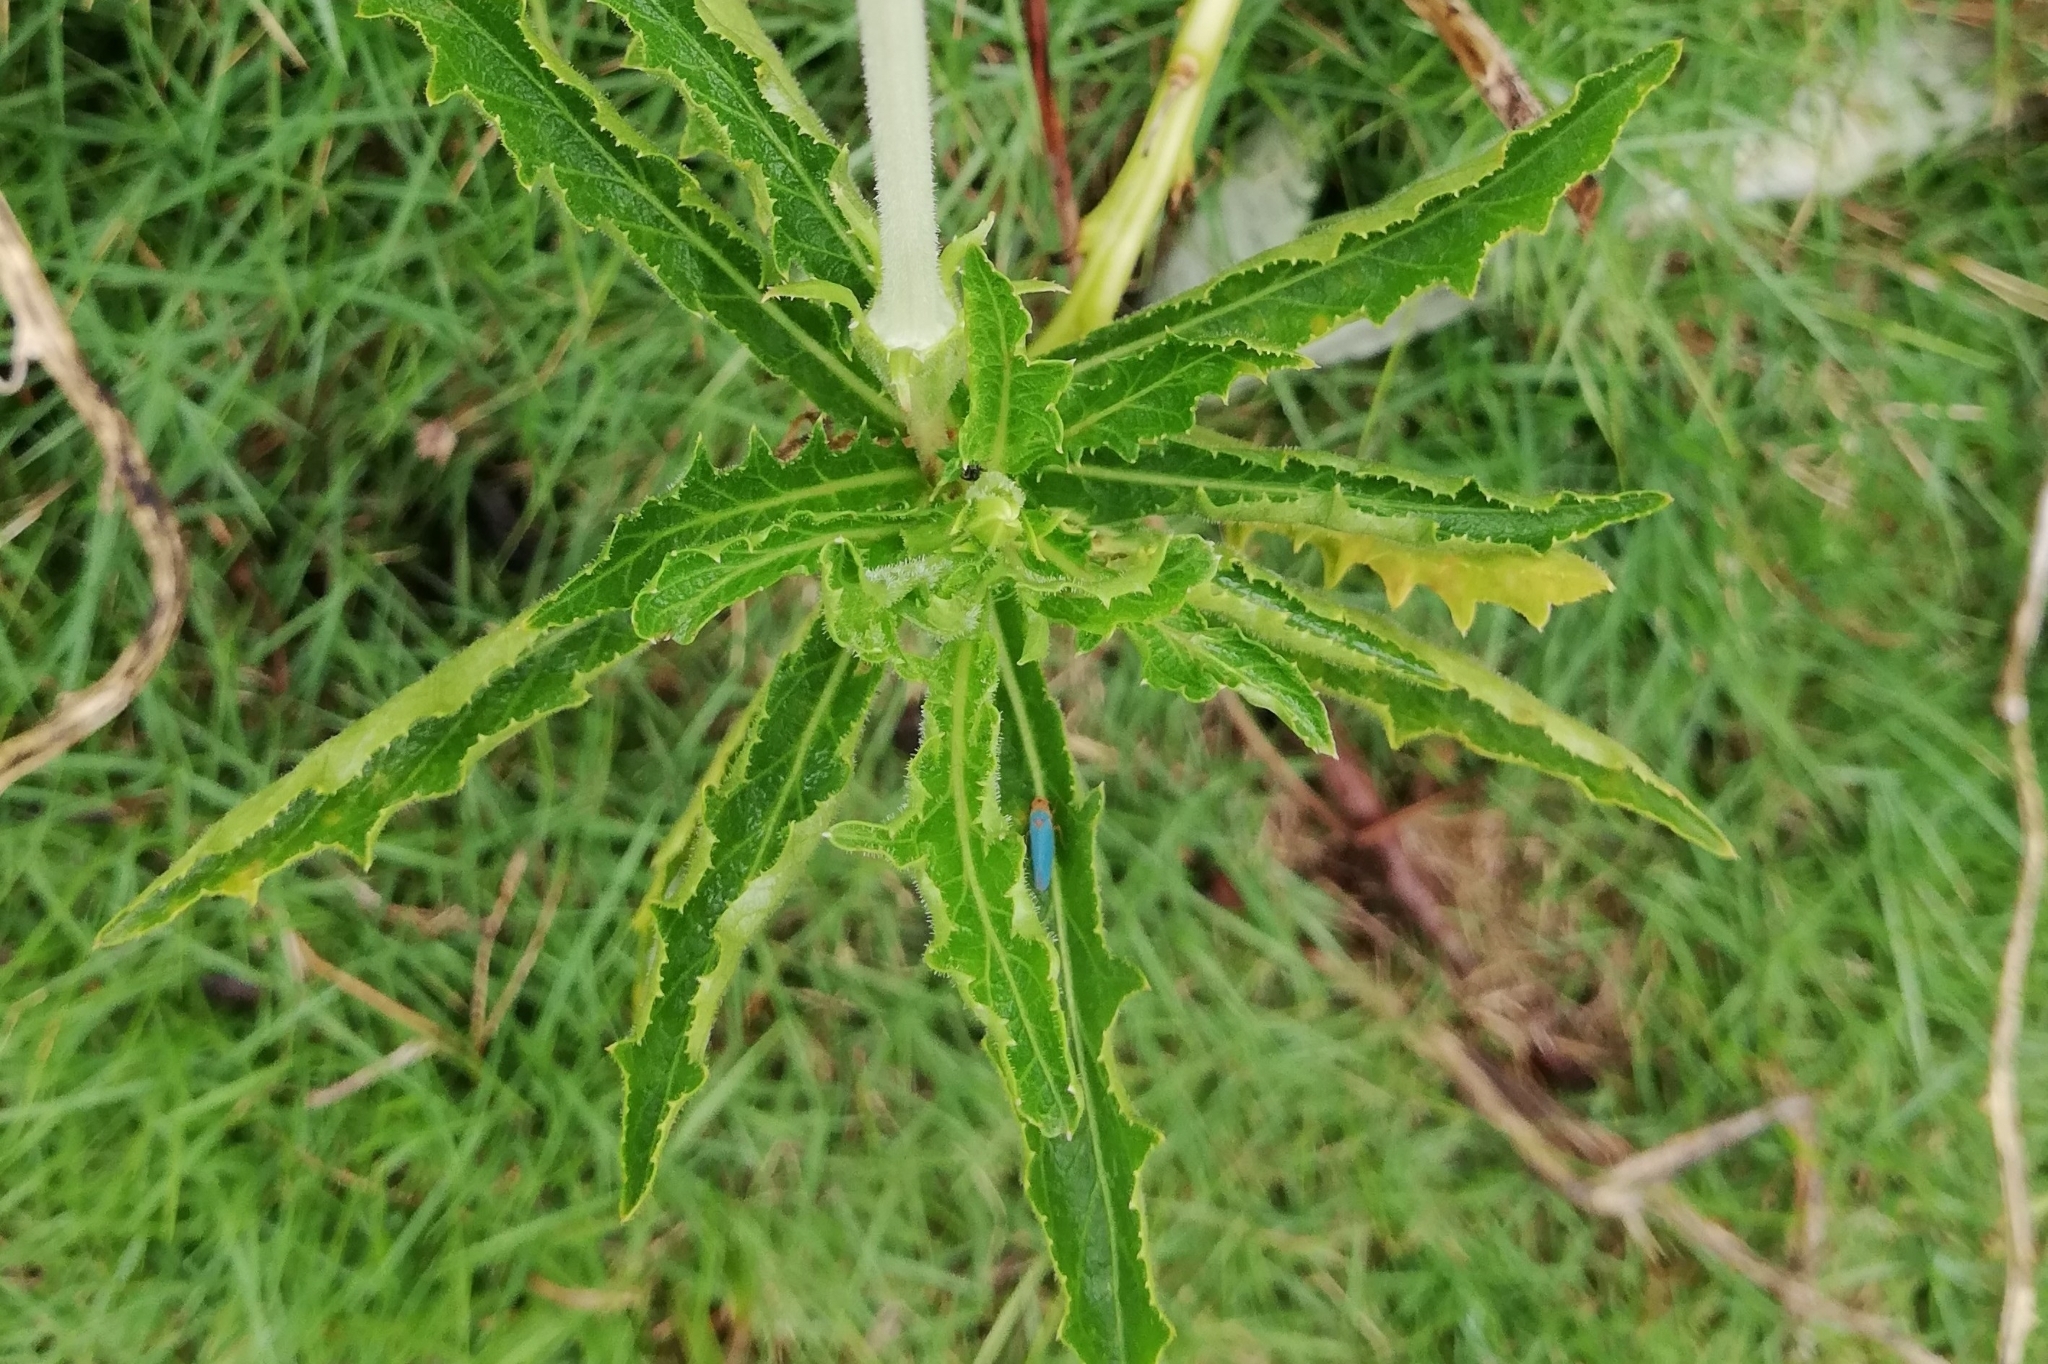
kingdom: Plantae
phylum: Tracheophyta
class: Magnoliopsida
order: Asterales
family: Campanulaceae
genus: Hippobroma
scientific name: Hippobroma longiflora
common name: Madamfate
